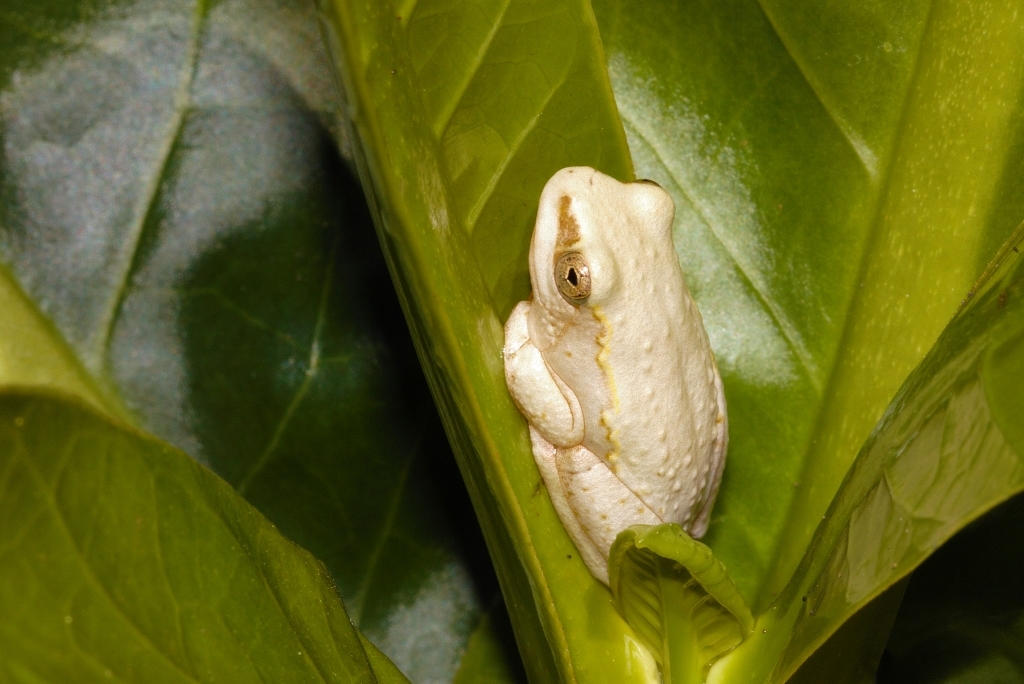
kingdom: Animalia
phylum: Chordata
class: Amphibia
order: Anura
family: Hyperoliidae
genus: Hyperolius
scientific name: Hyperolius marmoratus
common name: Painted reed frog
